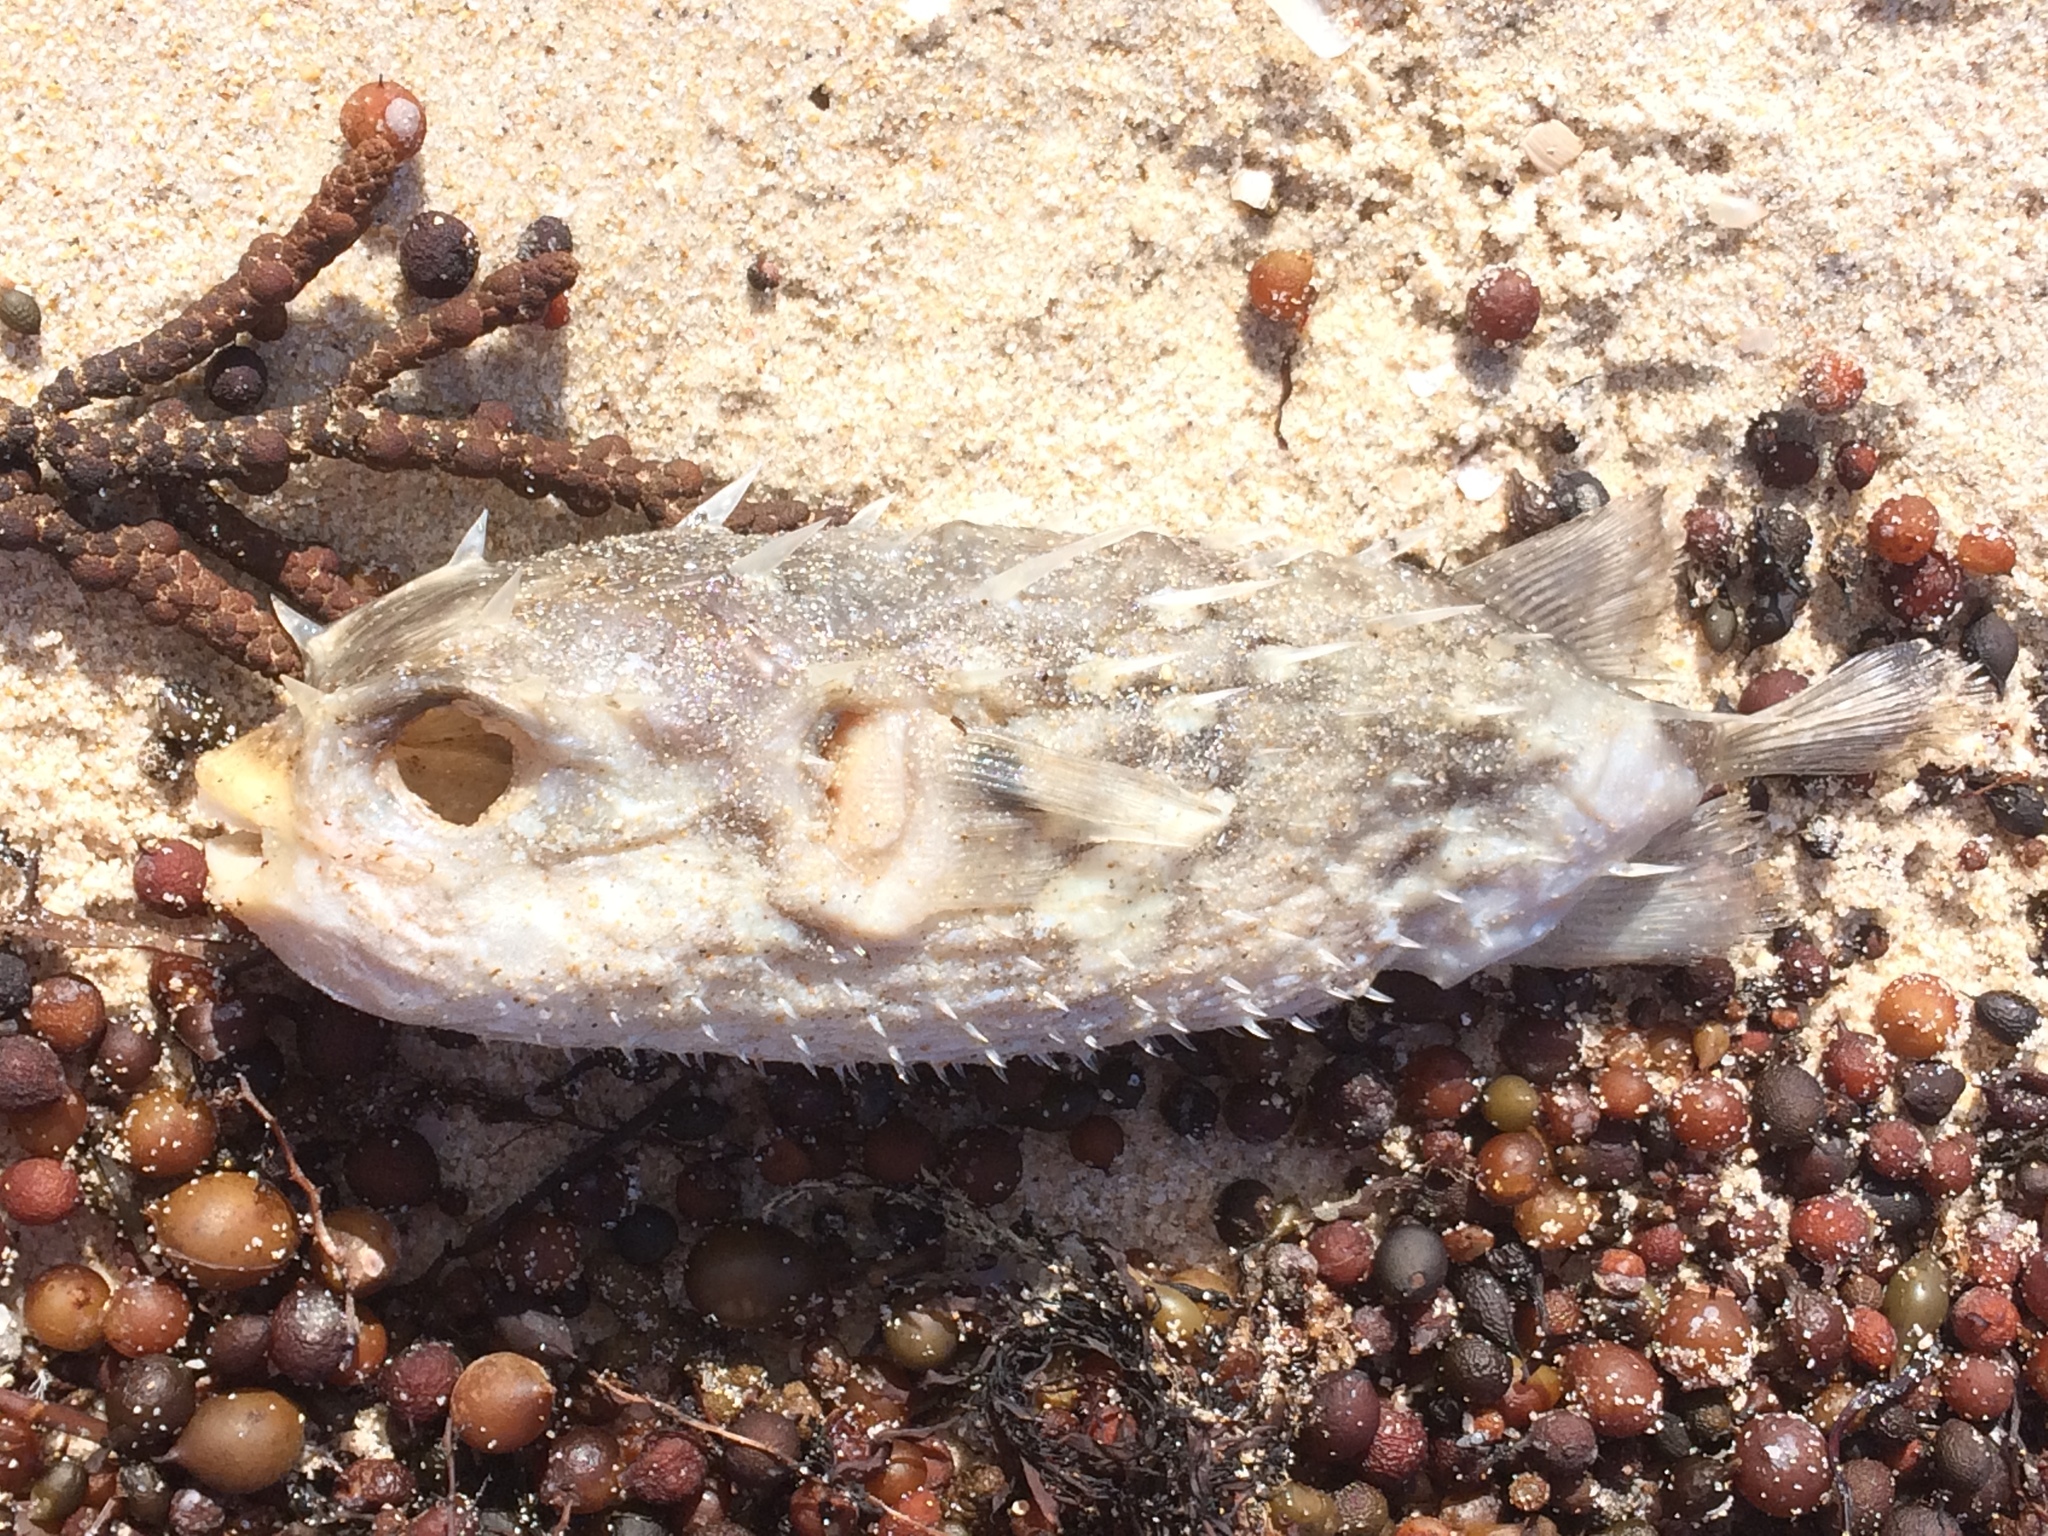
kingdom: Animalia
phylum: Chordata
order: Tetraodontiformes
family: Diodontidae
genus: Allomycterus
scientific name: Allomycterus pilatus
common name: No common name
